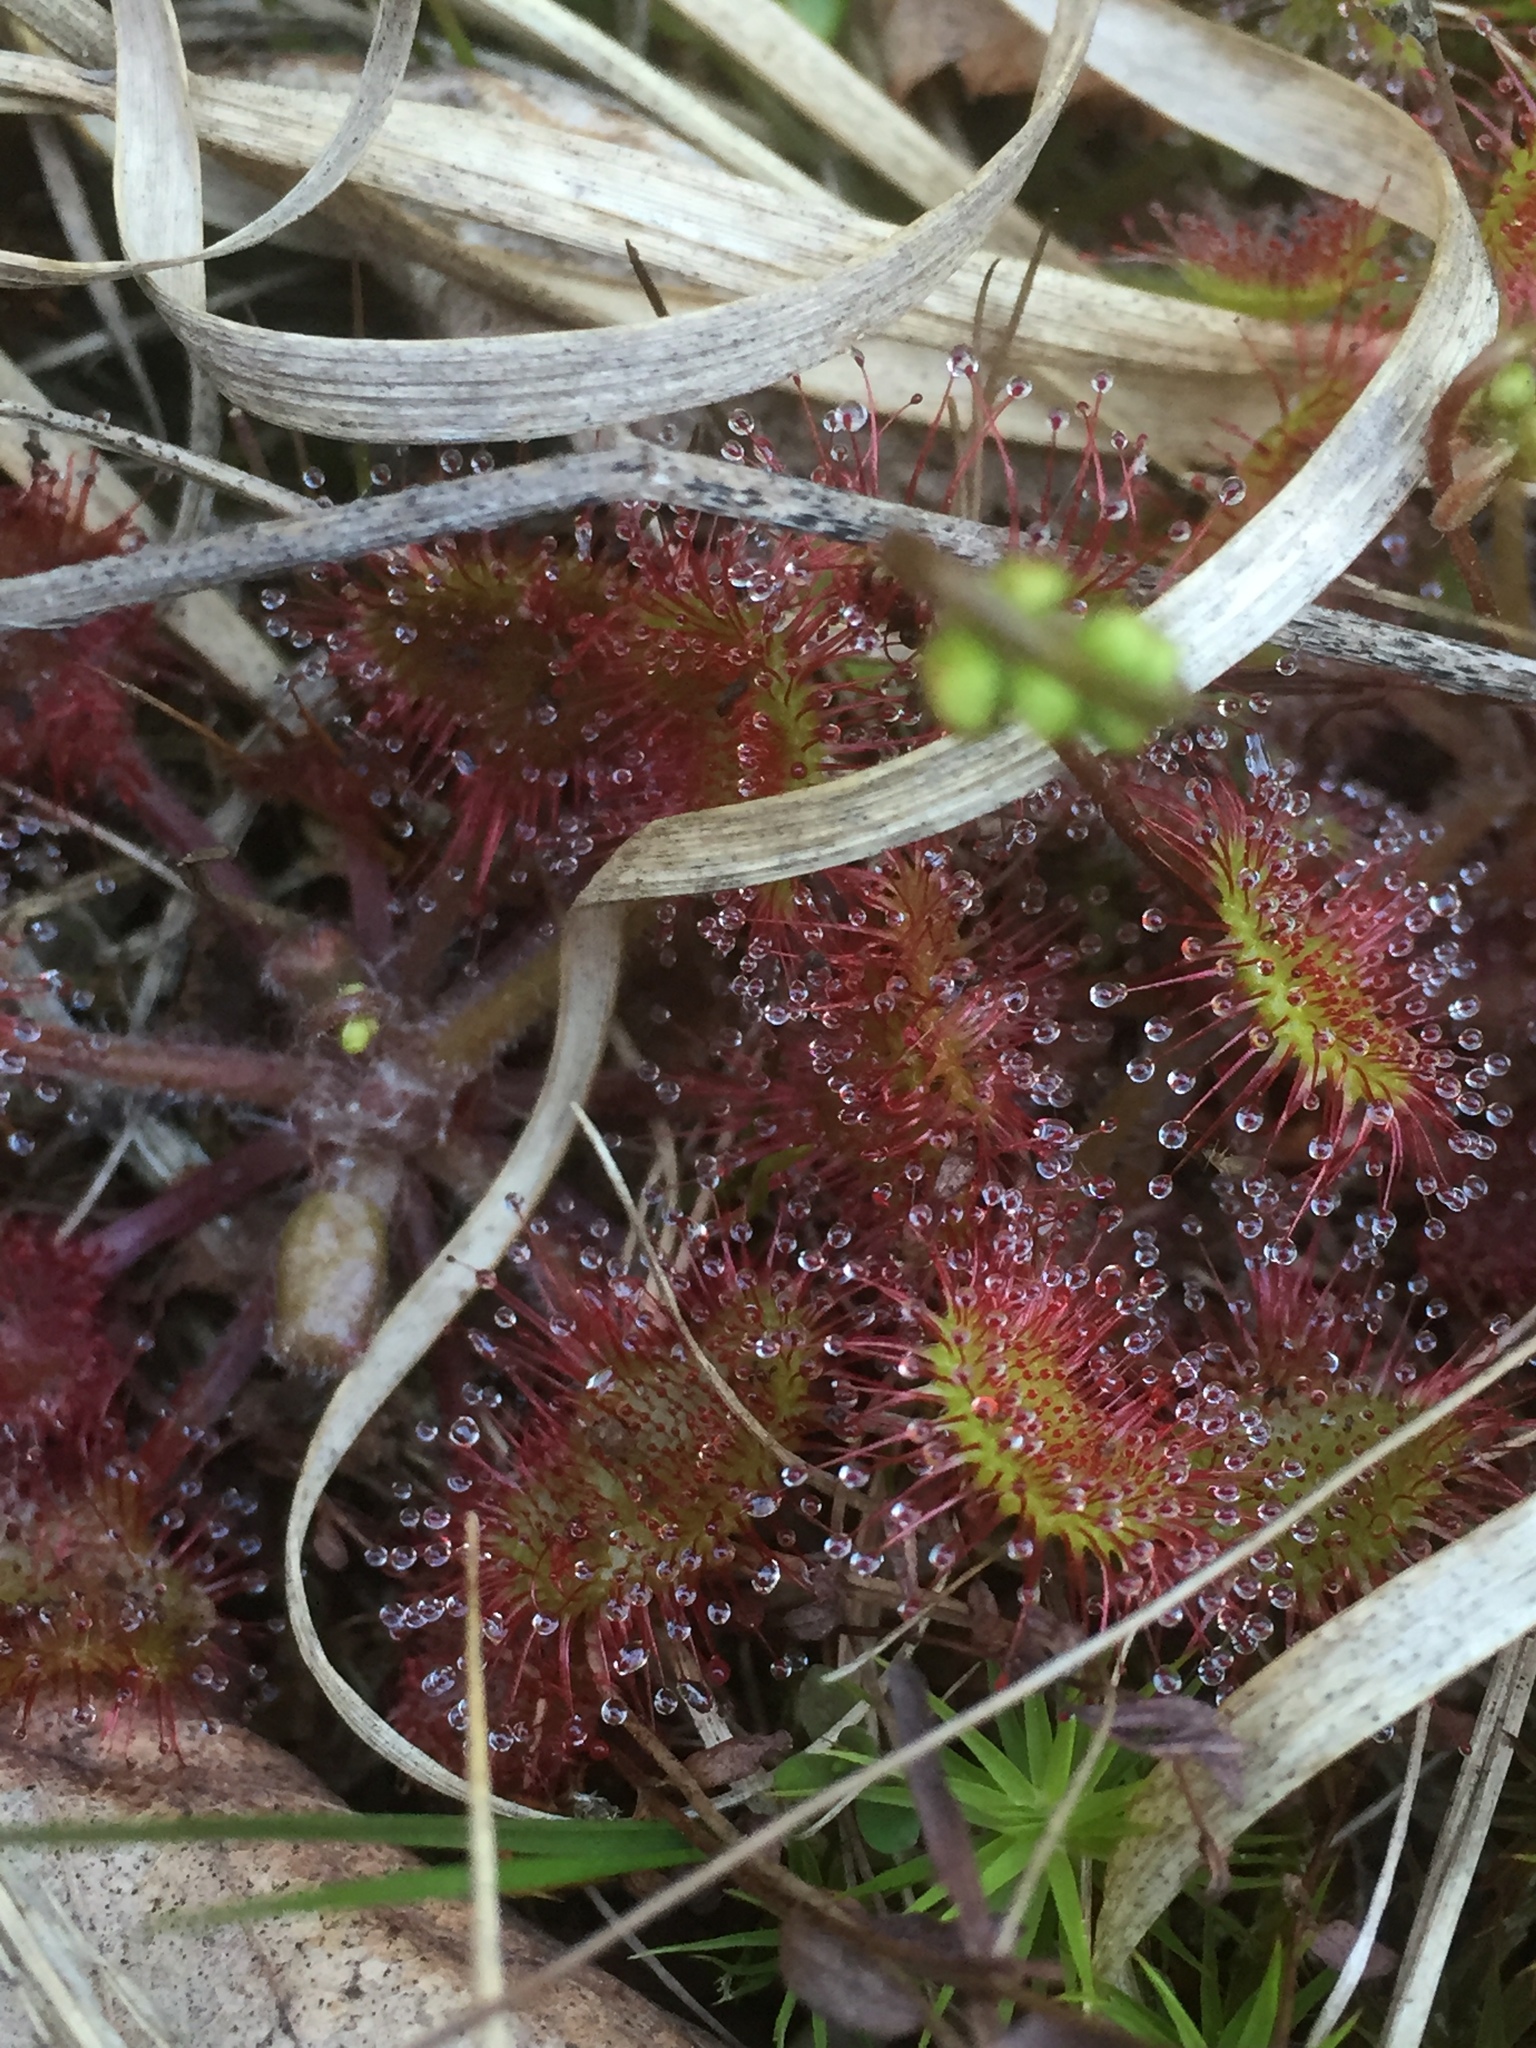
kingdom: Plantae
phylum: Tracheophyta
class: Magnoliopsida
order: Caryophyllales
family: Droseraceae
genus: Drosera
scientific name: Drosera rotundifolia
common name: Round-leaved sundew
